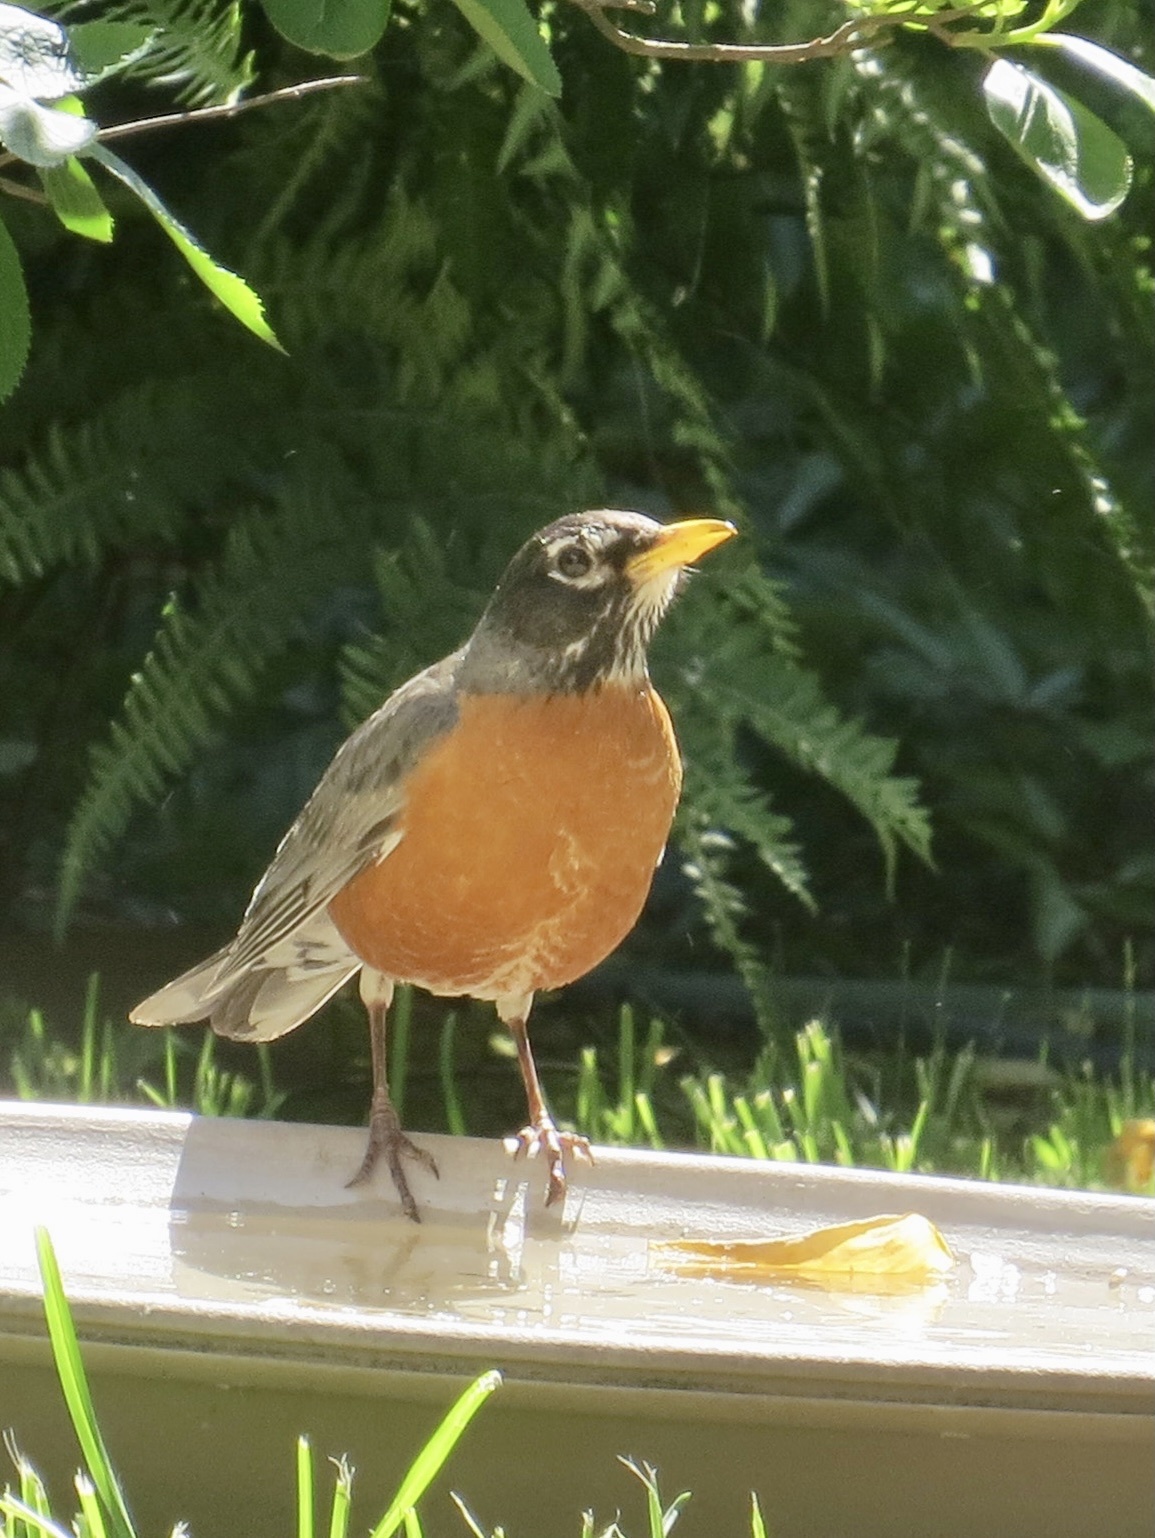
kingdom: Animalia
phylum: Chordata
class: Aves
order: Passeriformes
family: Turdidae
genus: Turdus
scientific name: Turdus migratorius
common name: American robin
